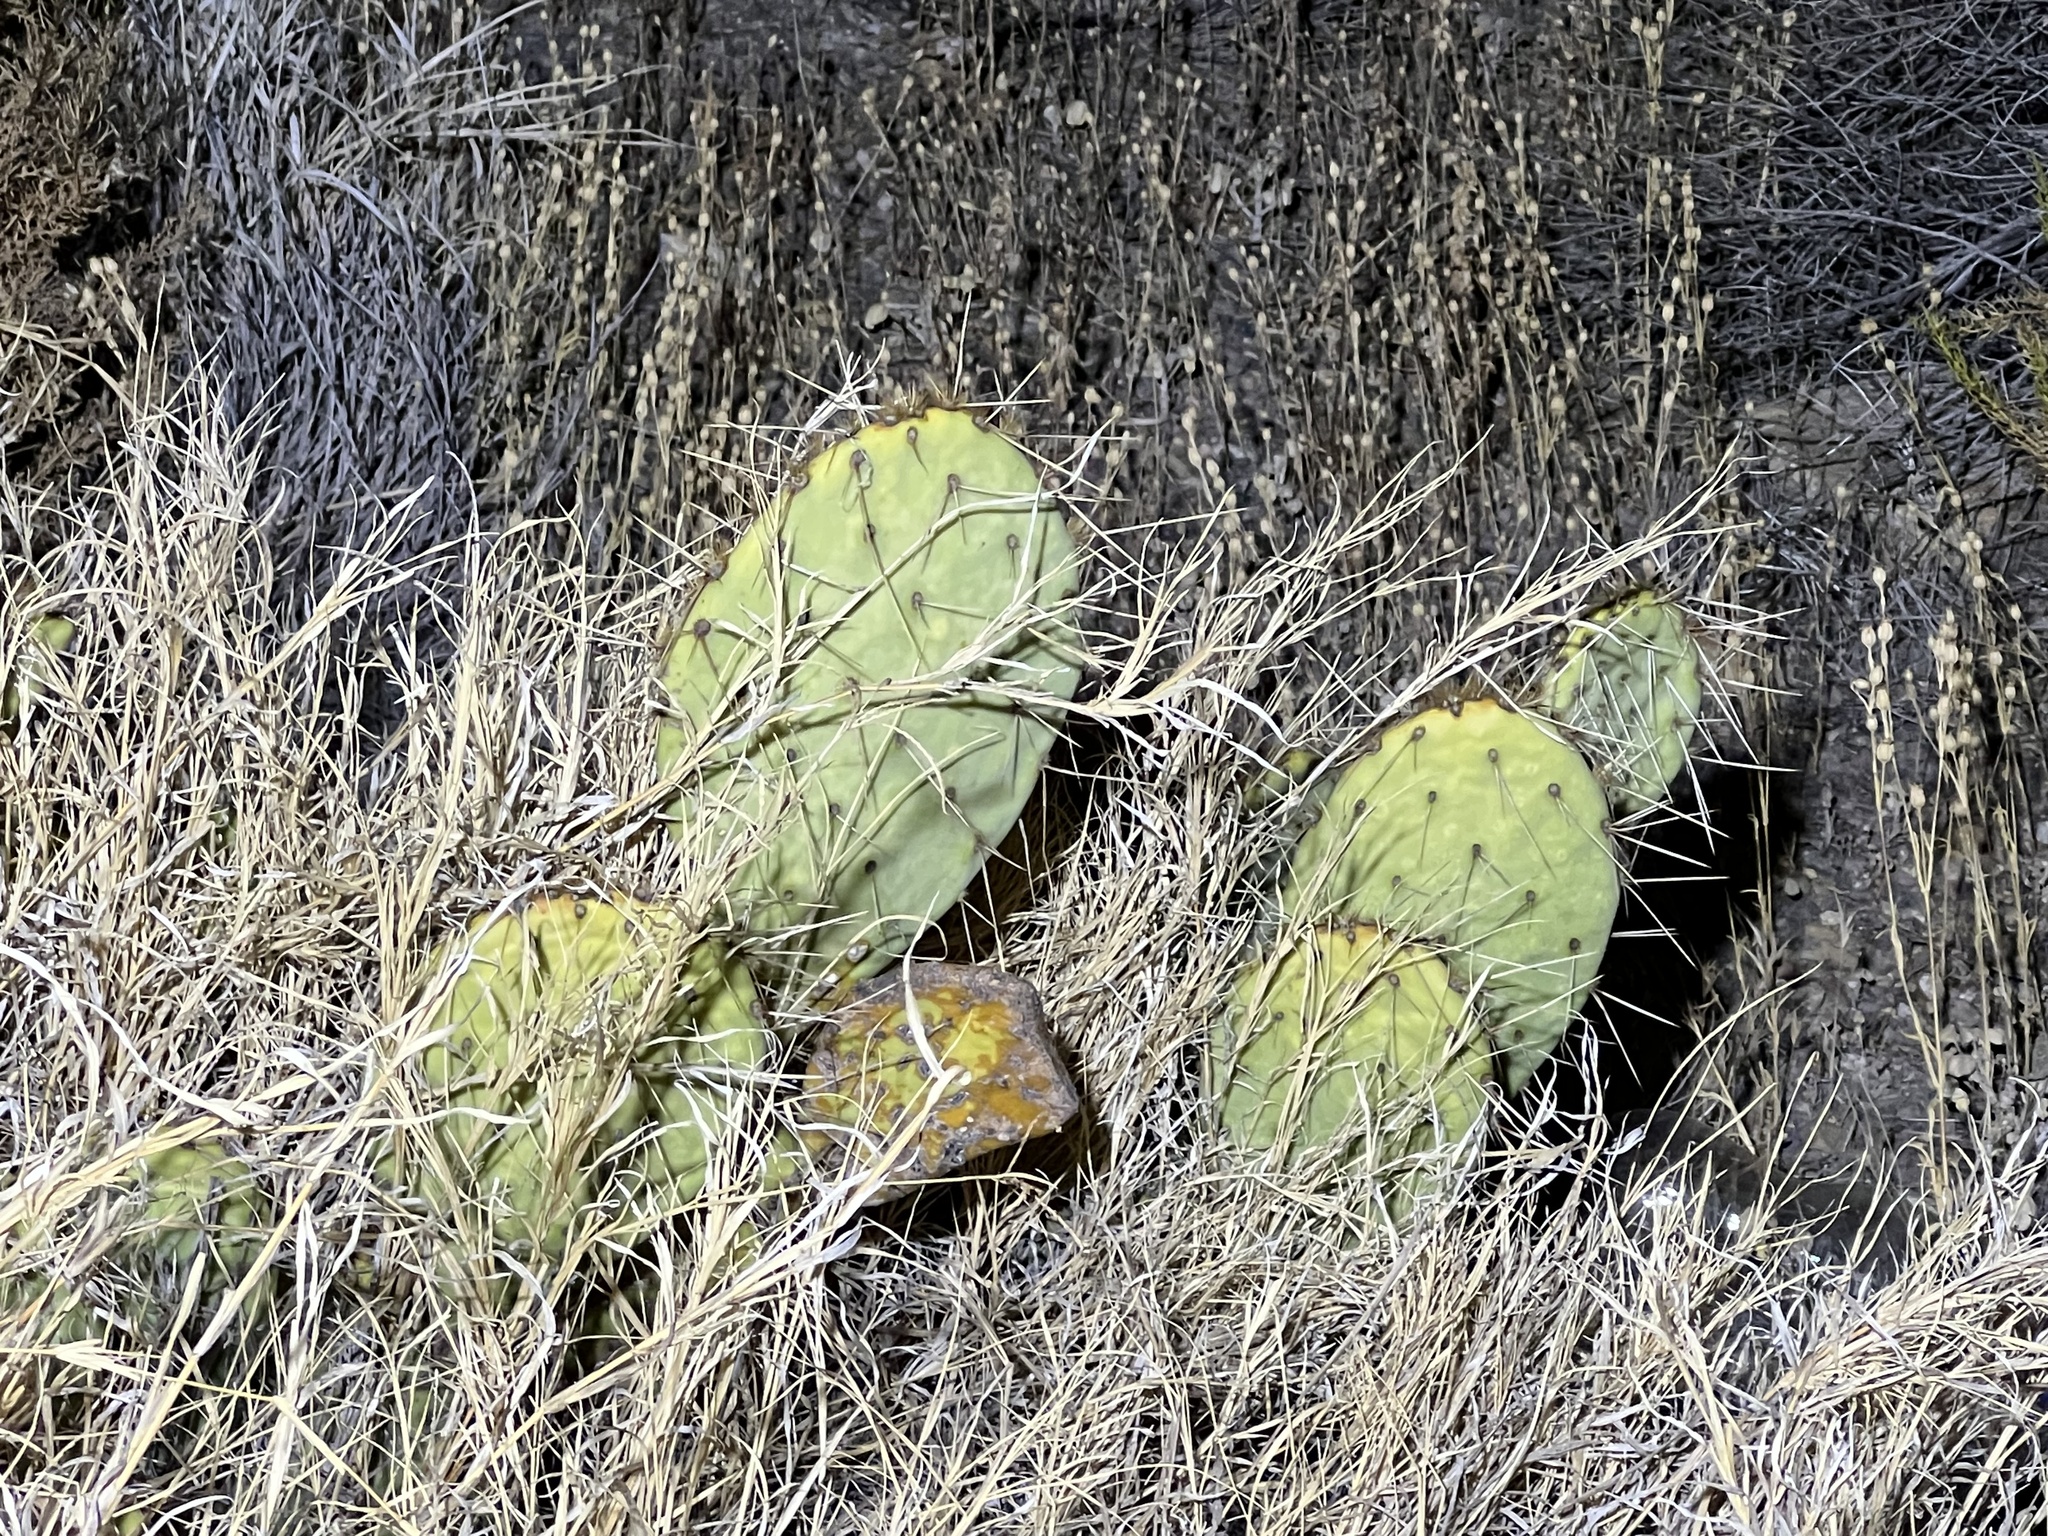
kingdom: Plantae
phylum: Tracheophyta
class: Magnoliopsida
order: Caryophyllales
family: Cactaceae
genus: Opuntia
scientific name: Opuntia engelmannii
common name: Cactus-apple
